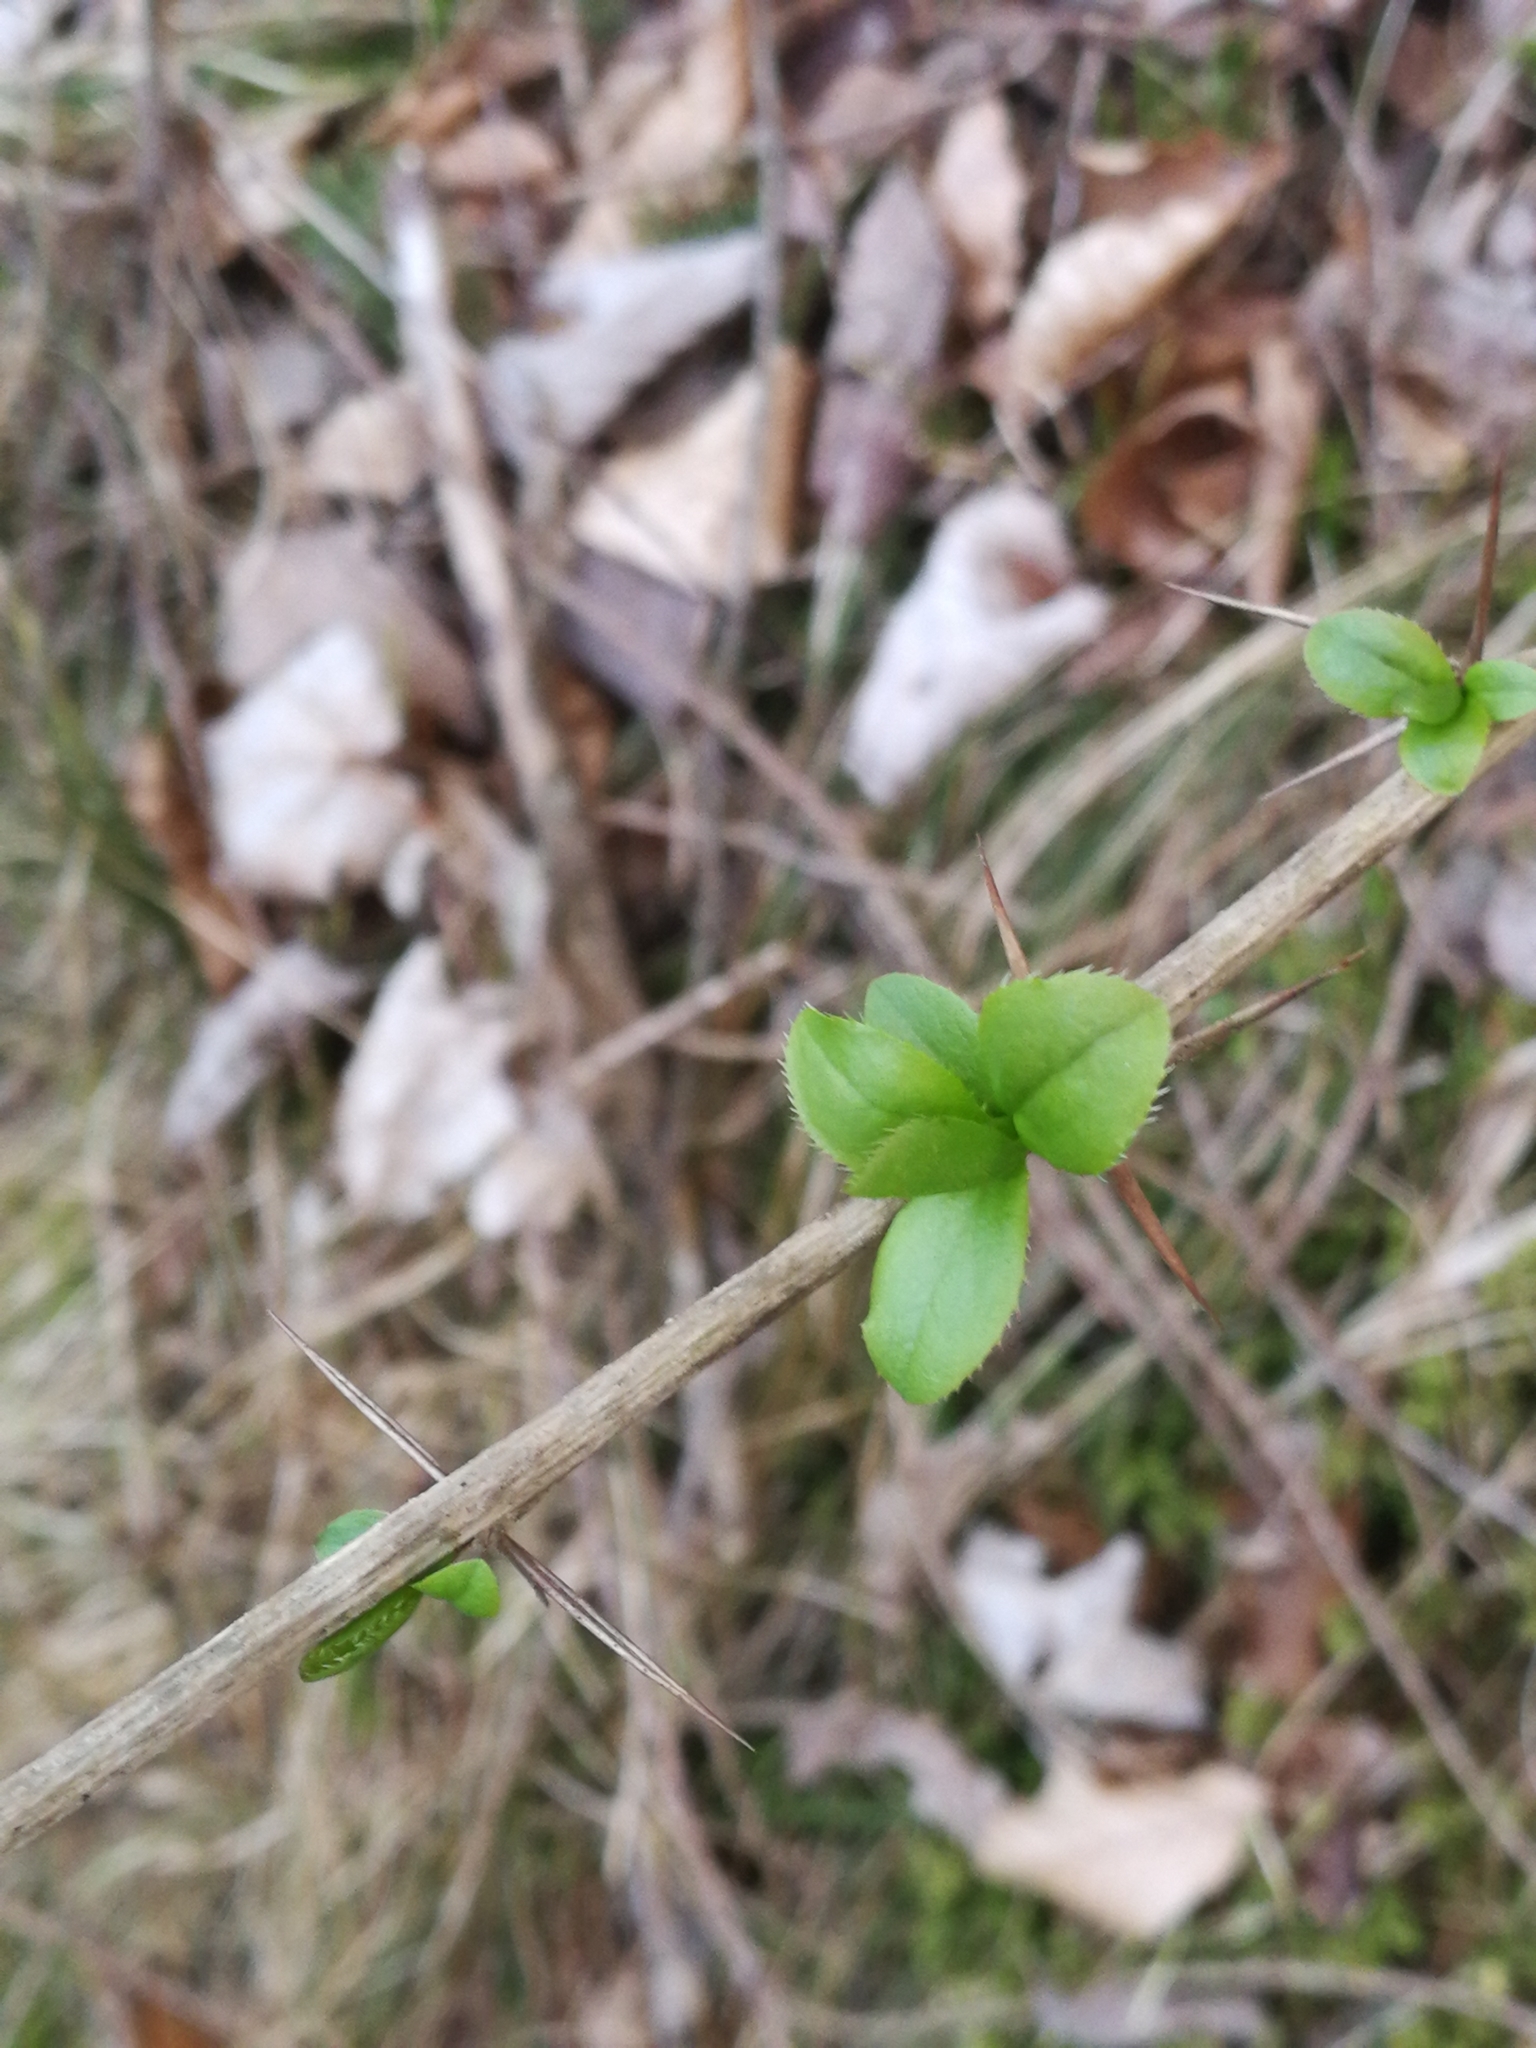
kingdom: Plantae
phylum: Tracheophyta
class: Magnoliopsida
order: Ranunculales
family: Berberidaceae
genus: Berberis
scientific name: Berberis vulgaris
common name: Barberry
